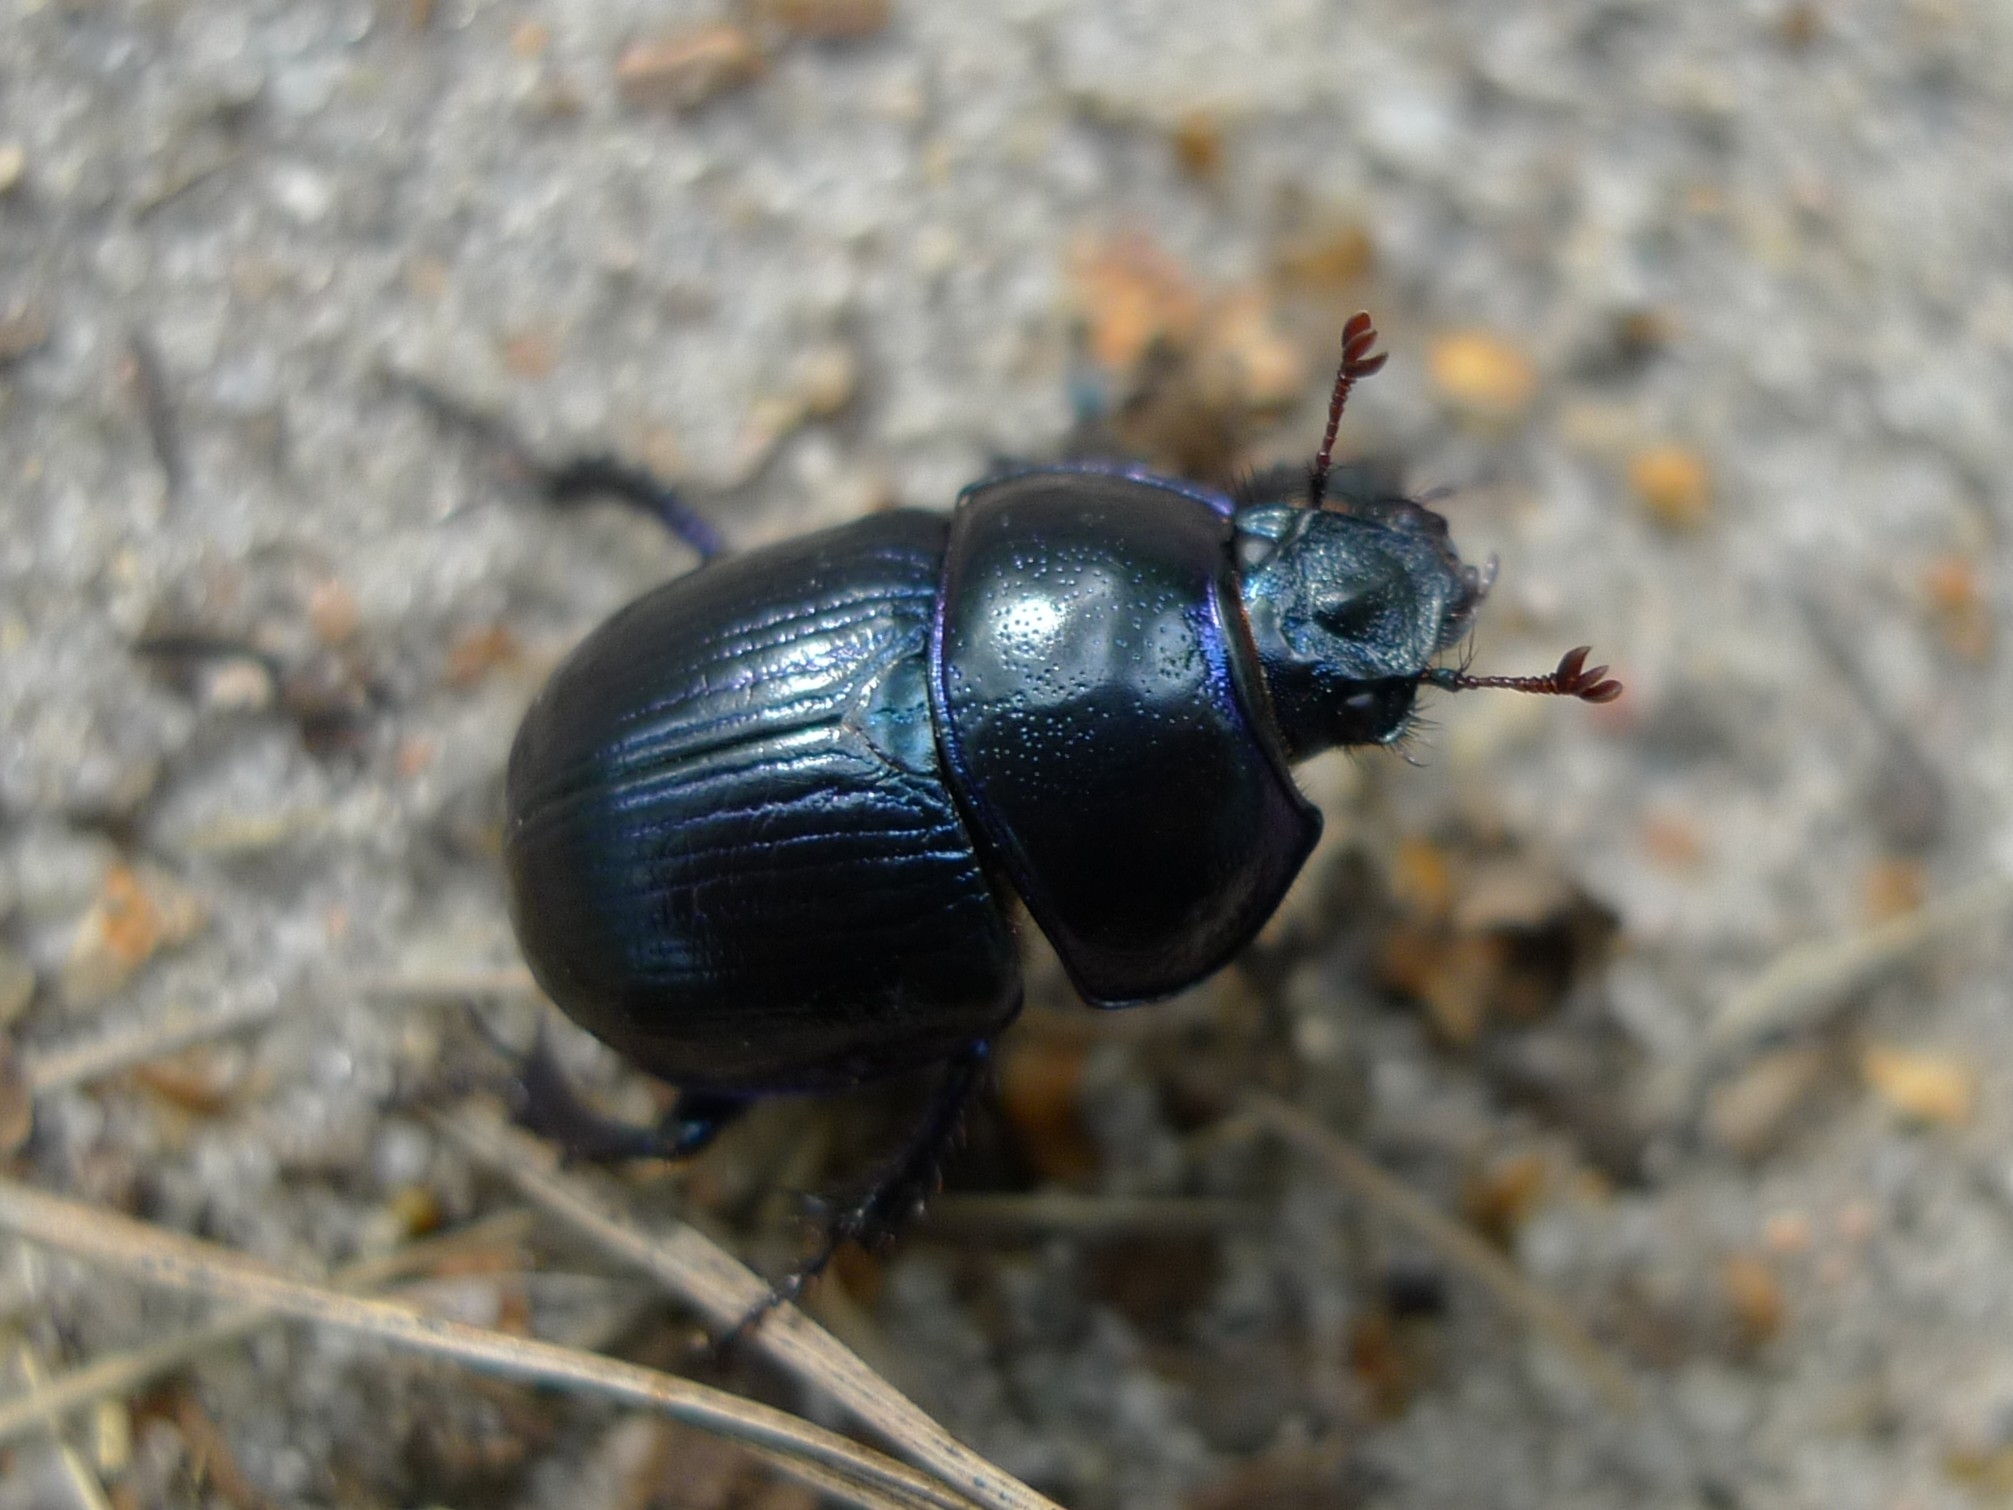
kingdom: Animalia
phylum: Arthropoda
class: Insecta
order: Coleoptera
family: Geotrupidae
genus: Anoplotrupes
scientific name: Anoplotrupes stercorosus
